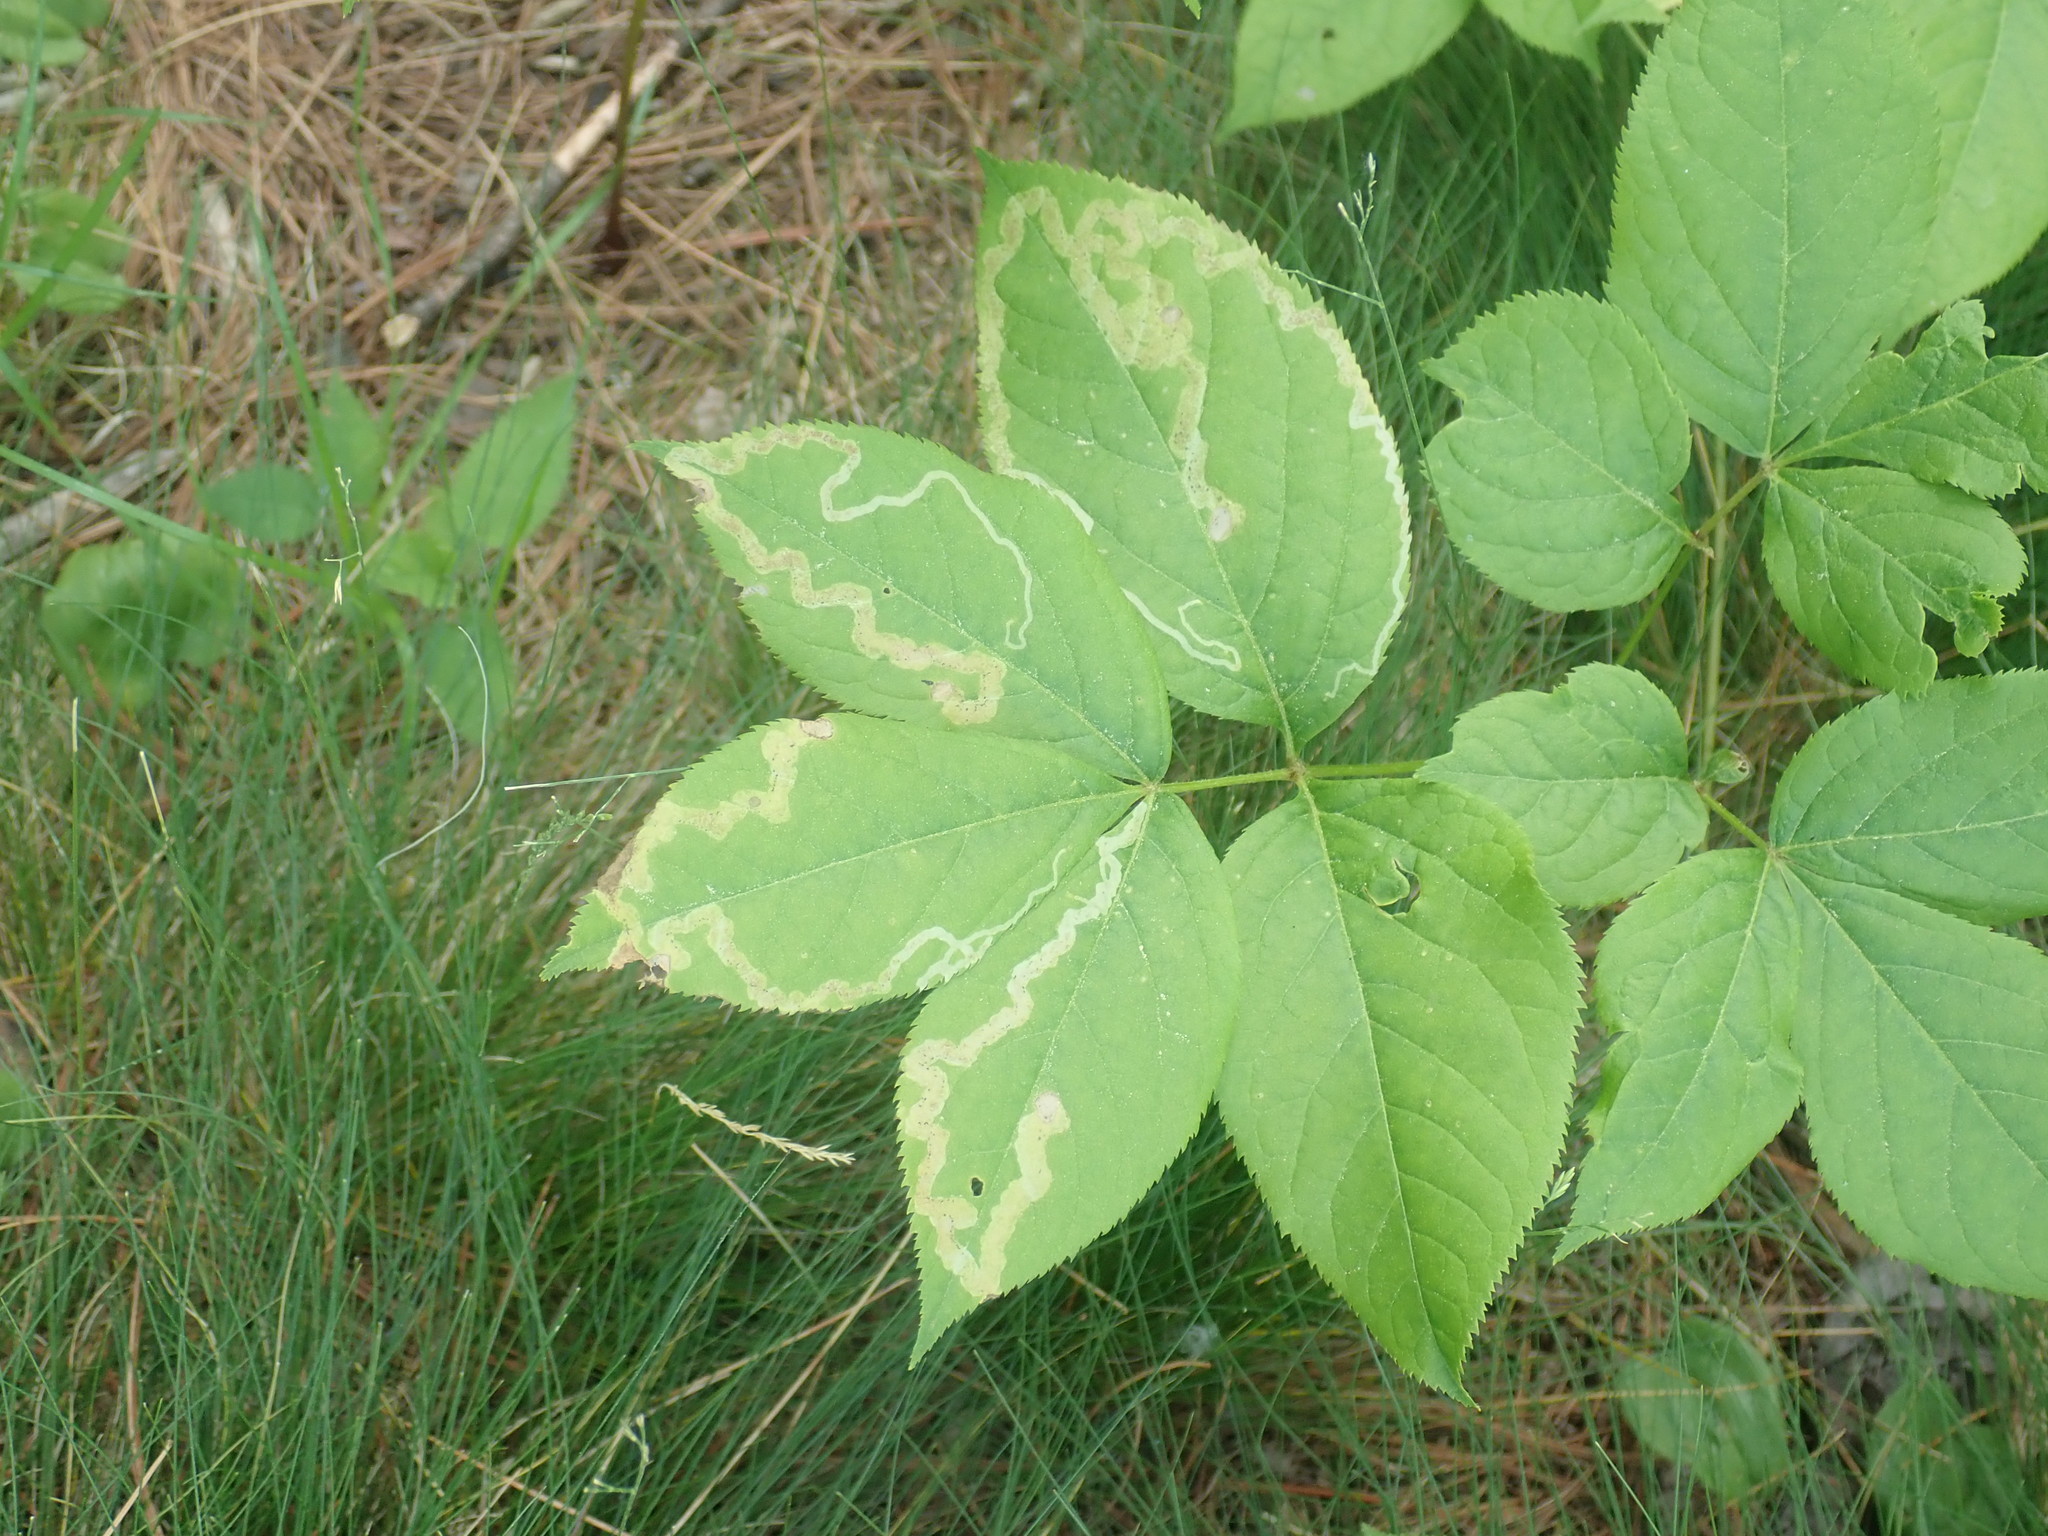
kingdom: Animalia
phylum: Arthropoda
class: Insecta
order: Diptera
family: Agromyzidae
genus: Phytomyza
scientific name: Phytomyza aralivora
